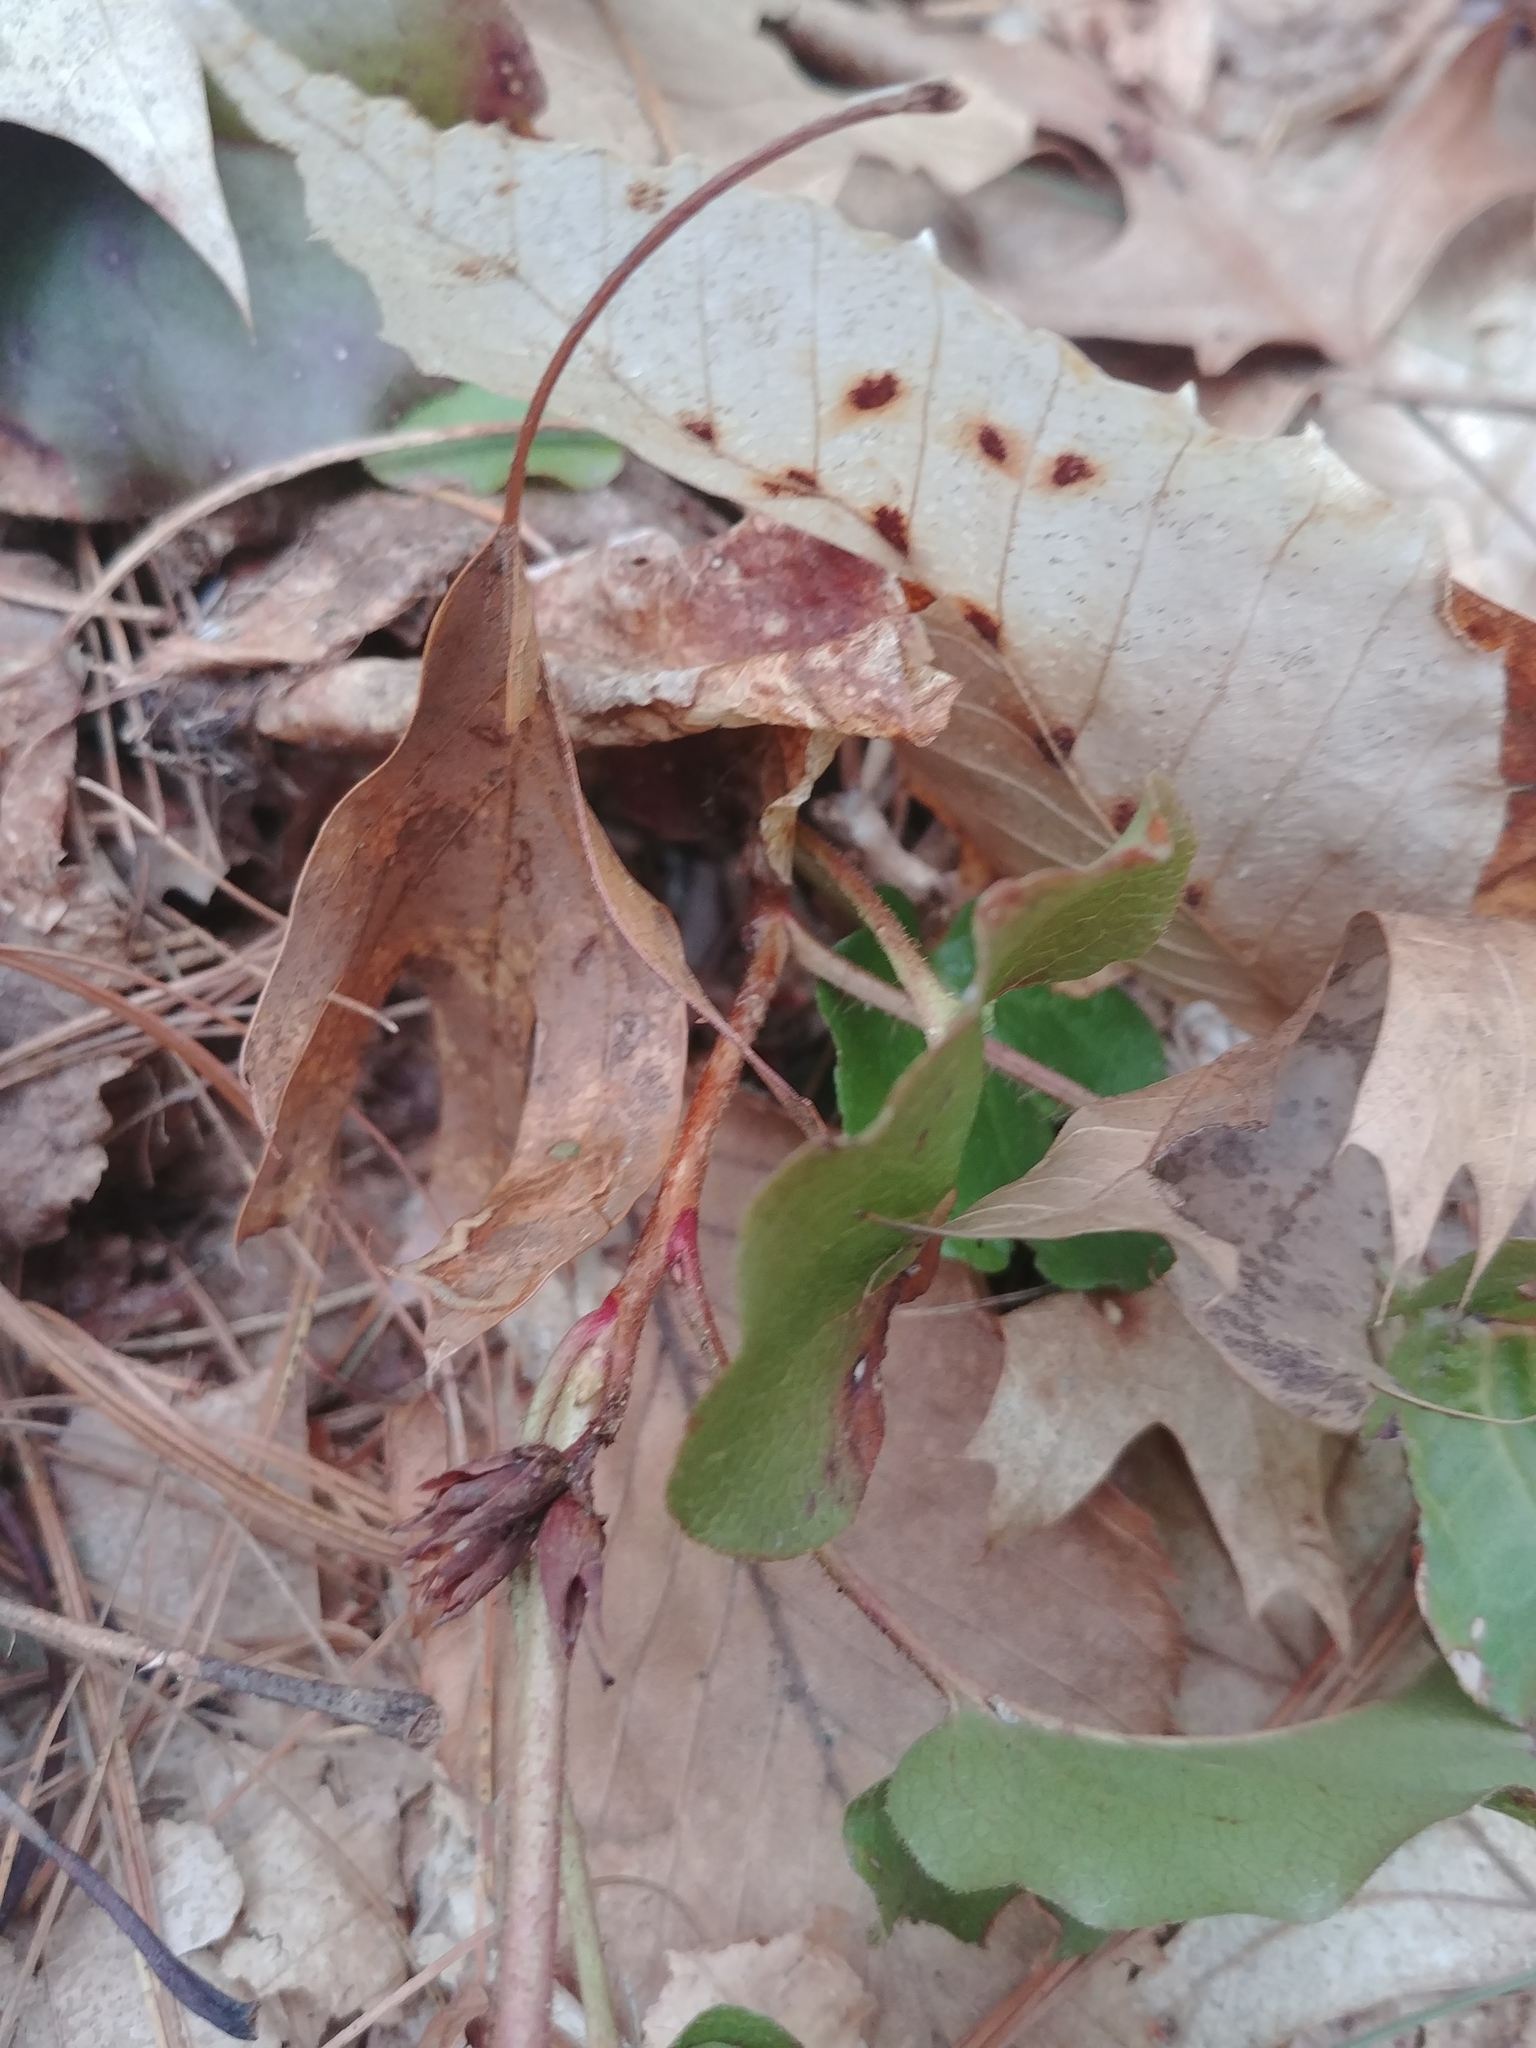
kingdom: Plantae
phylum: Tracheophyta
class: Magnoliopsida
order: Ericales
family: Ericaceae
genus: Epigaea
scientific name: Epigaea repens
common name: Gravelroot
